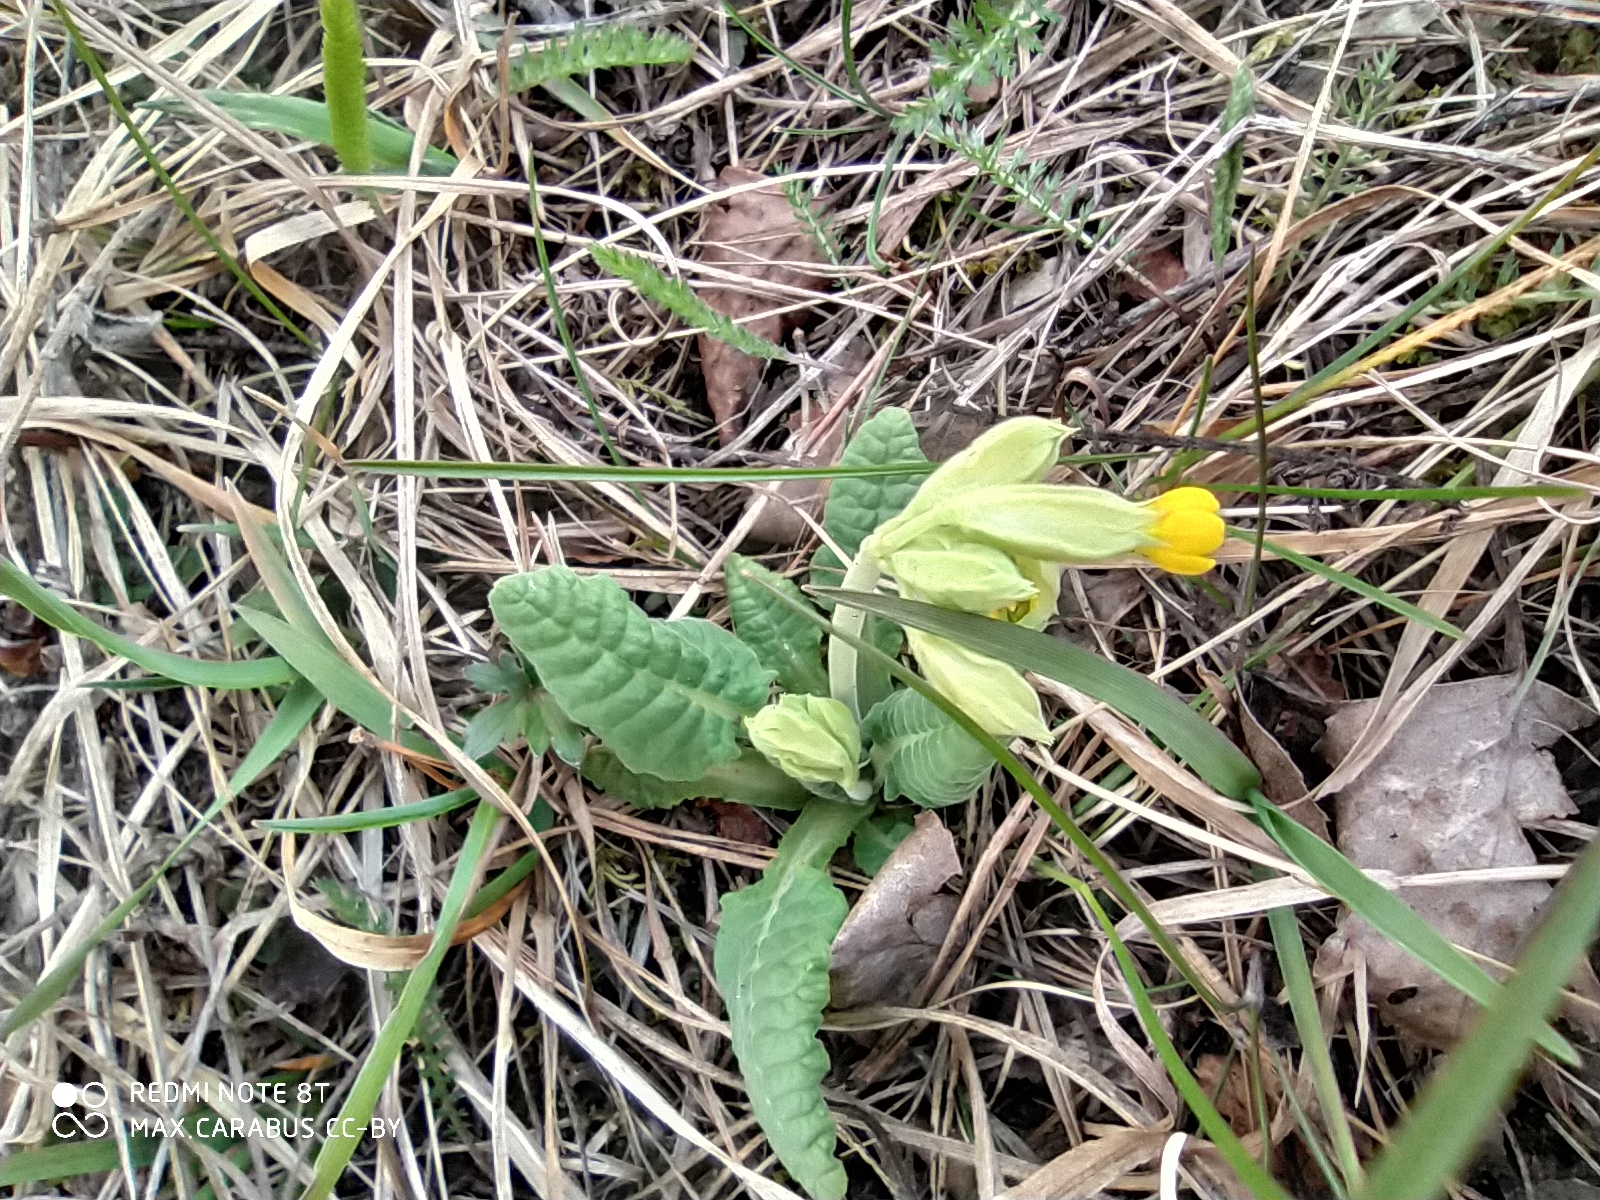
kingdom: Plantae
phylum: Tracheophyta
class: Magnoliopsida
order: Ericales
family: Primulaceae
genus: Primula
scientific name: Primula veris
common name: Cowslip
